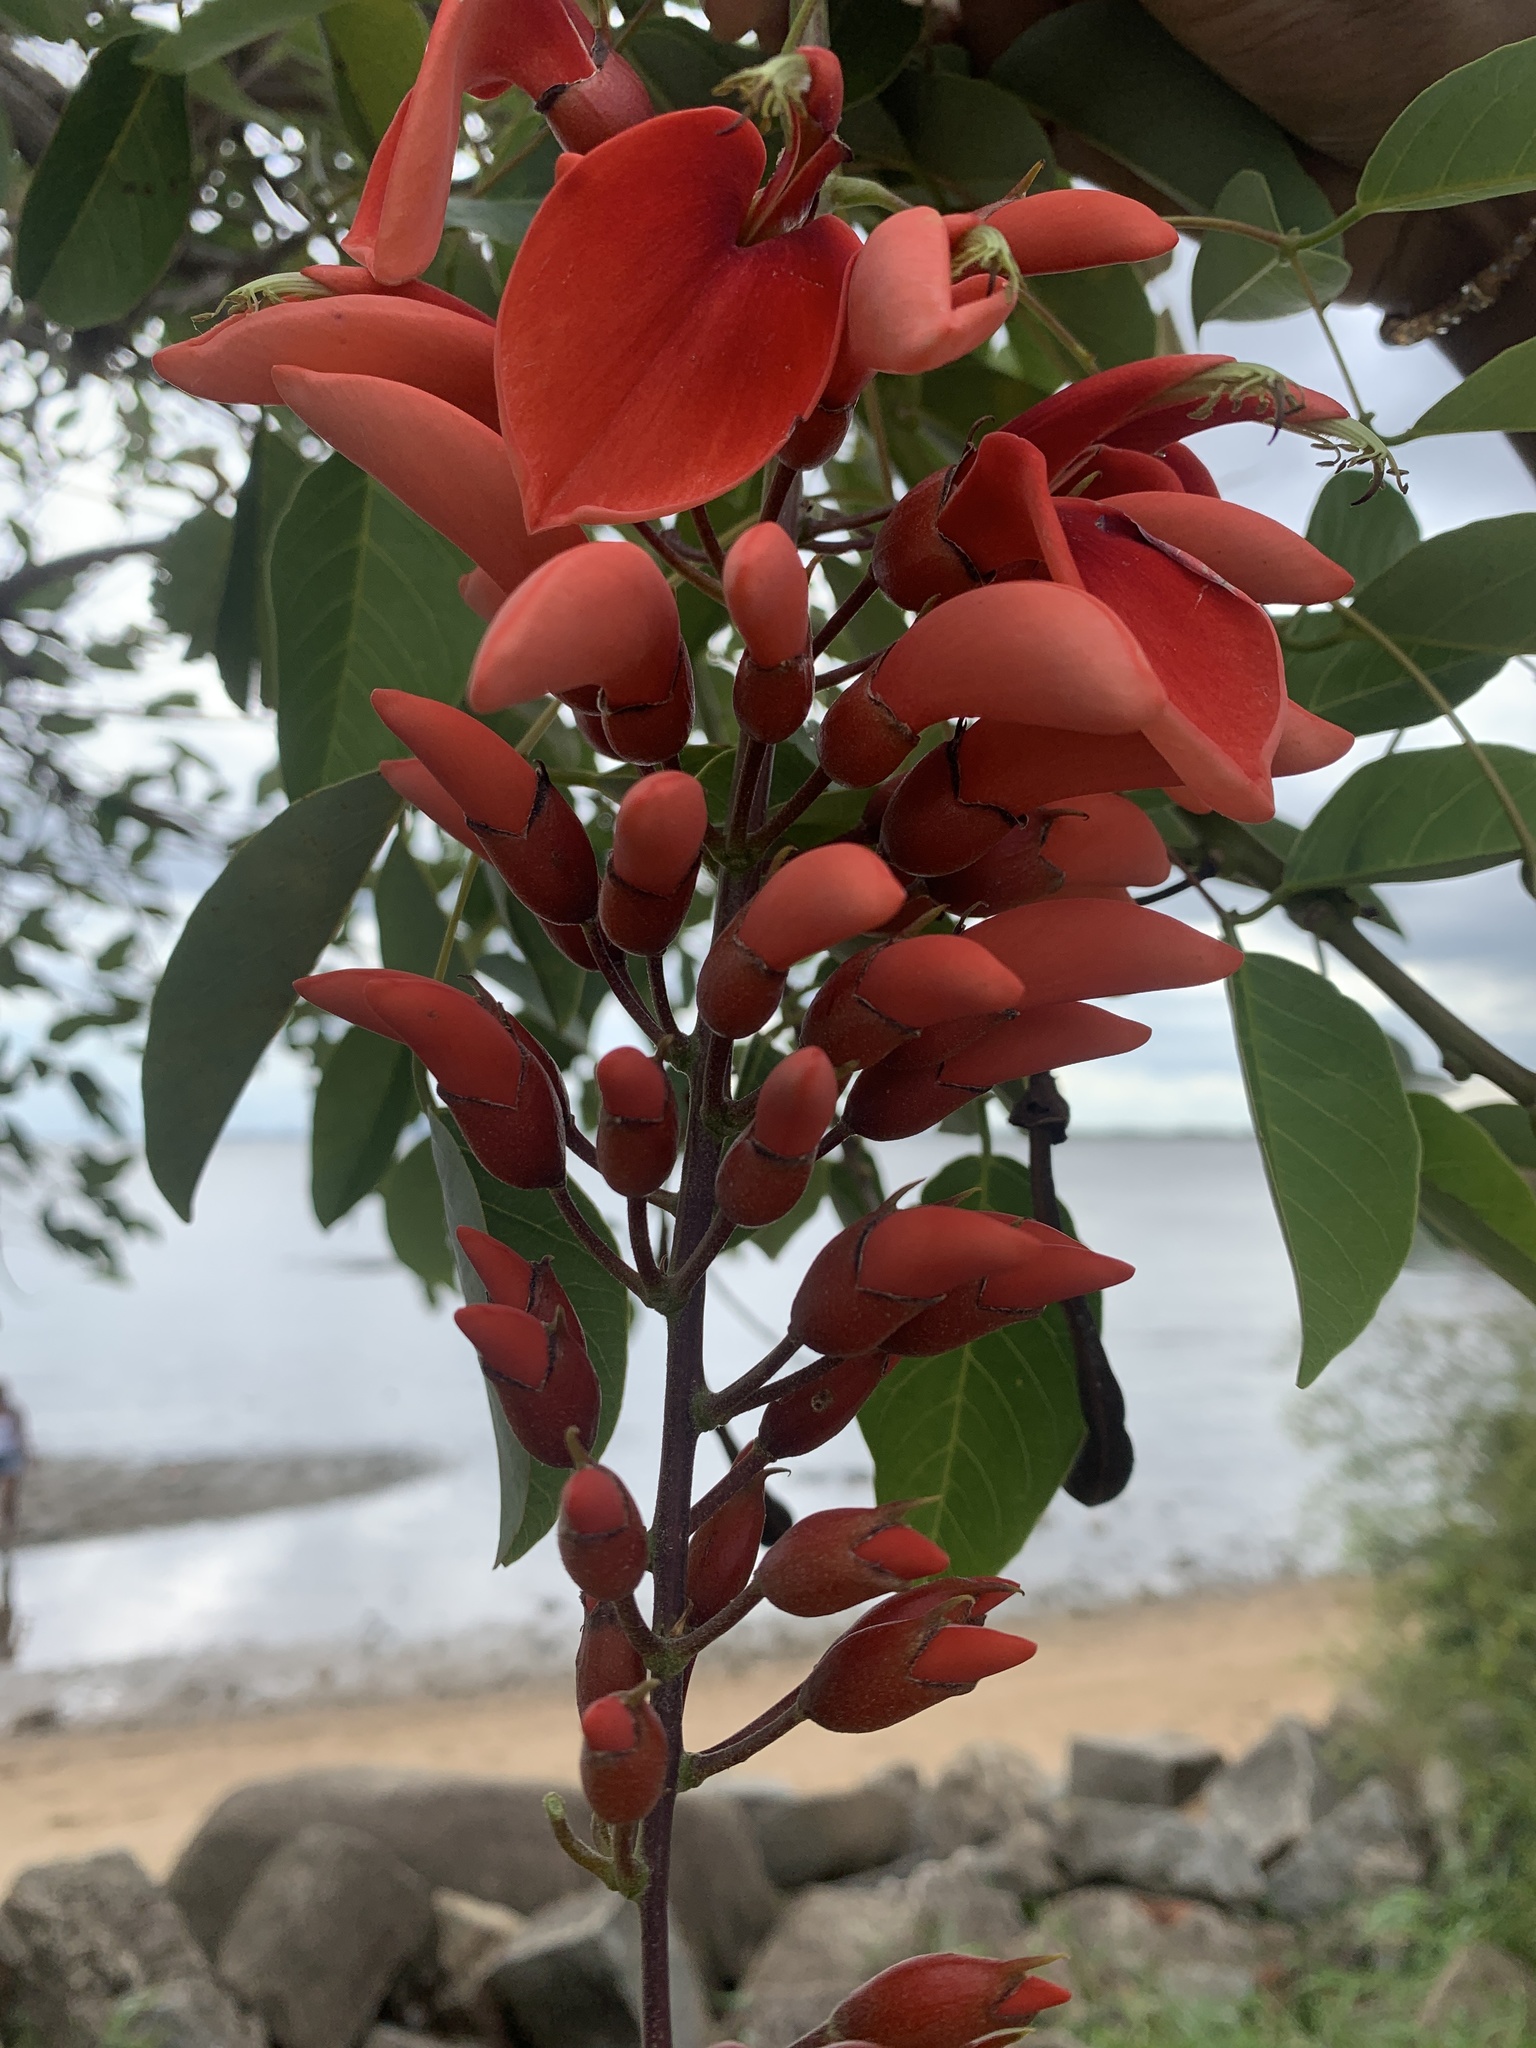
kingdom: Plantae
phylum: Tracheophyta
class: Magnoliopsida
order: Fabales
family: Fabaceae
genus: Erythrina
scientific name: Erythrina crista-galli
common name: Cockspur coral tree
